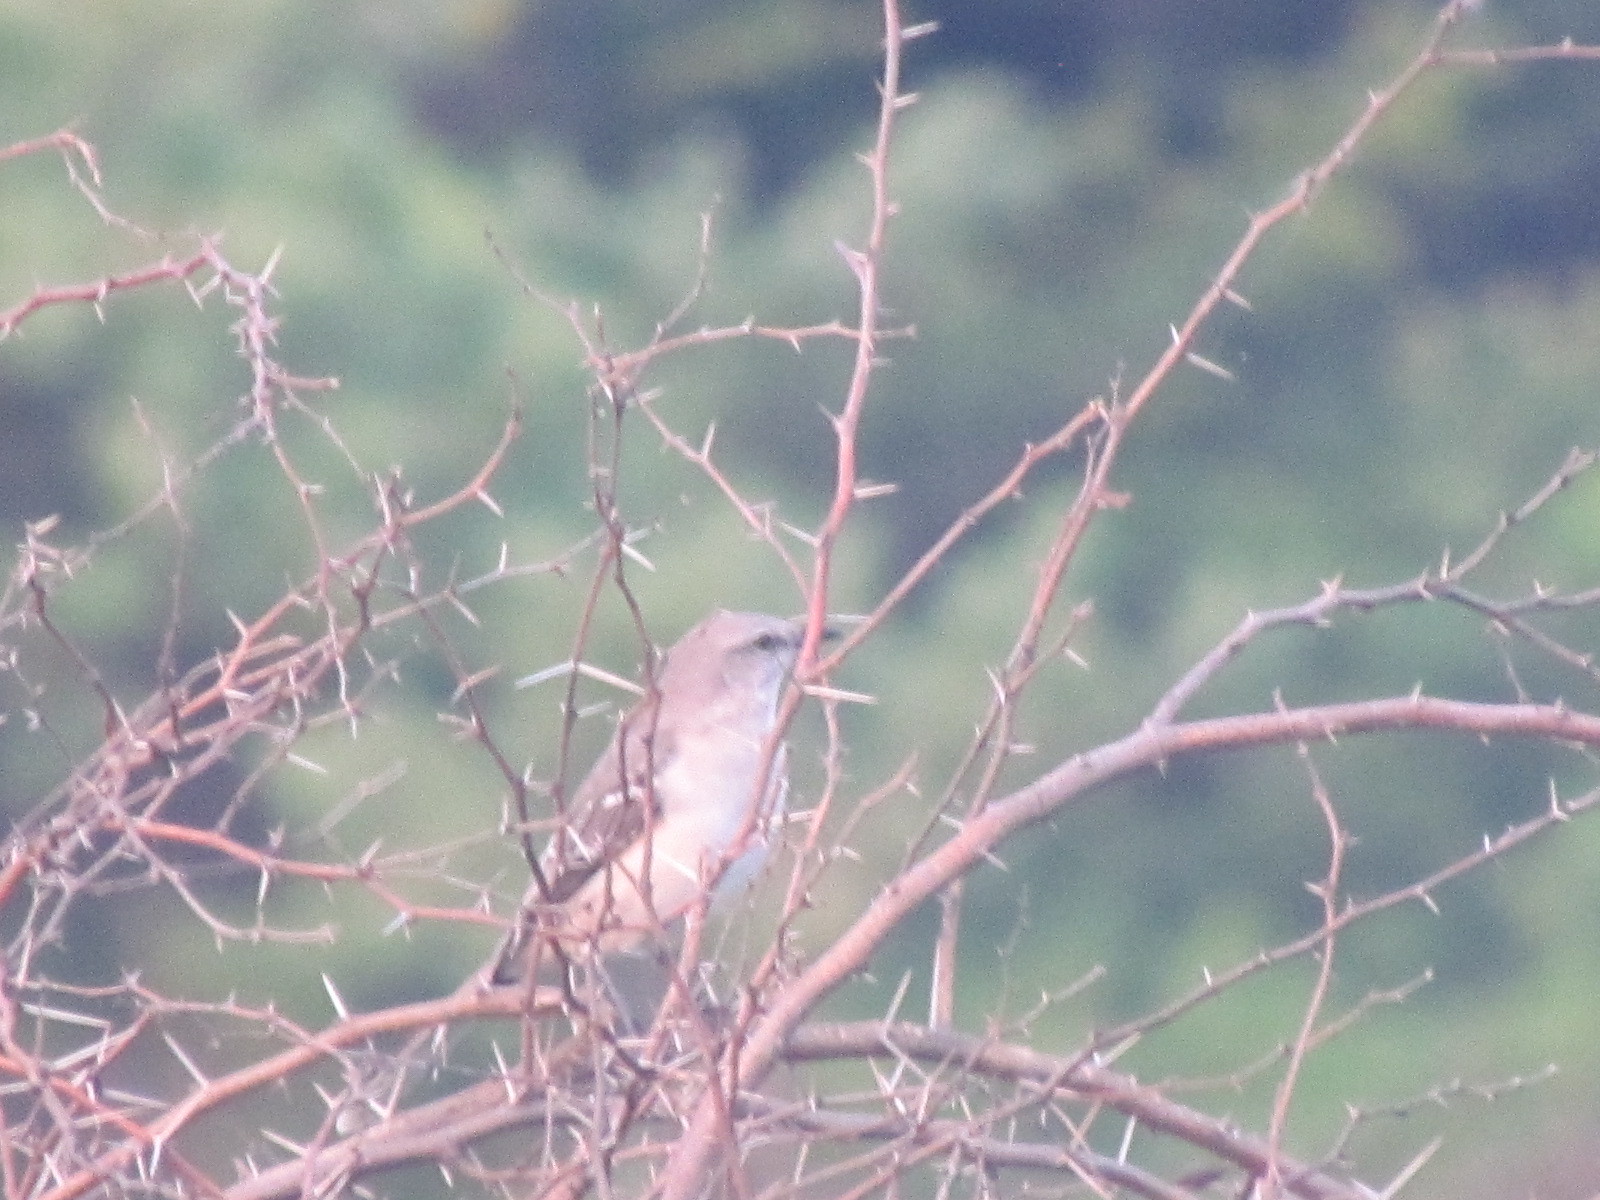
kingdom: Animalia
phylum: Chordata
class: Aves
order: Passeriformes
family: Mimidae
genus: Mimus
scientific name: Mimus gilvus
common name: Tropical mockingbird
